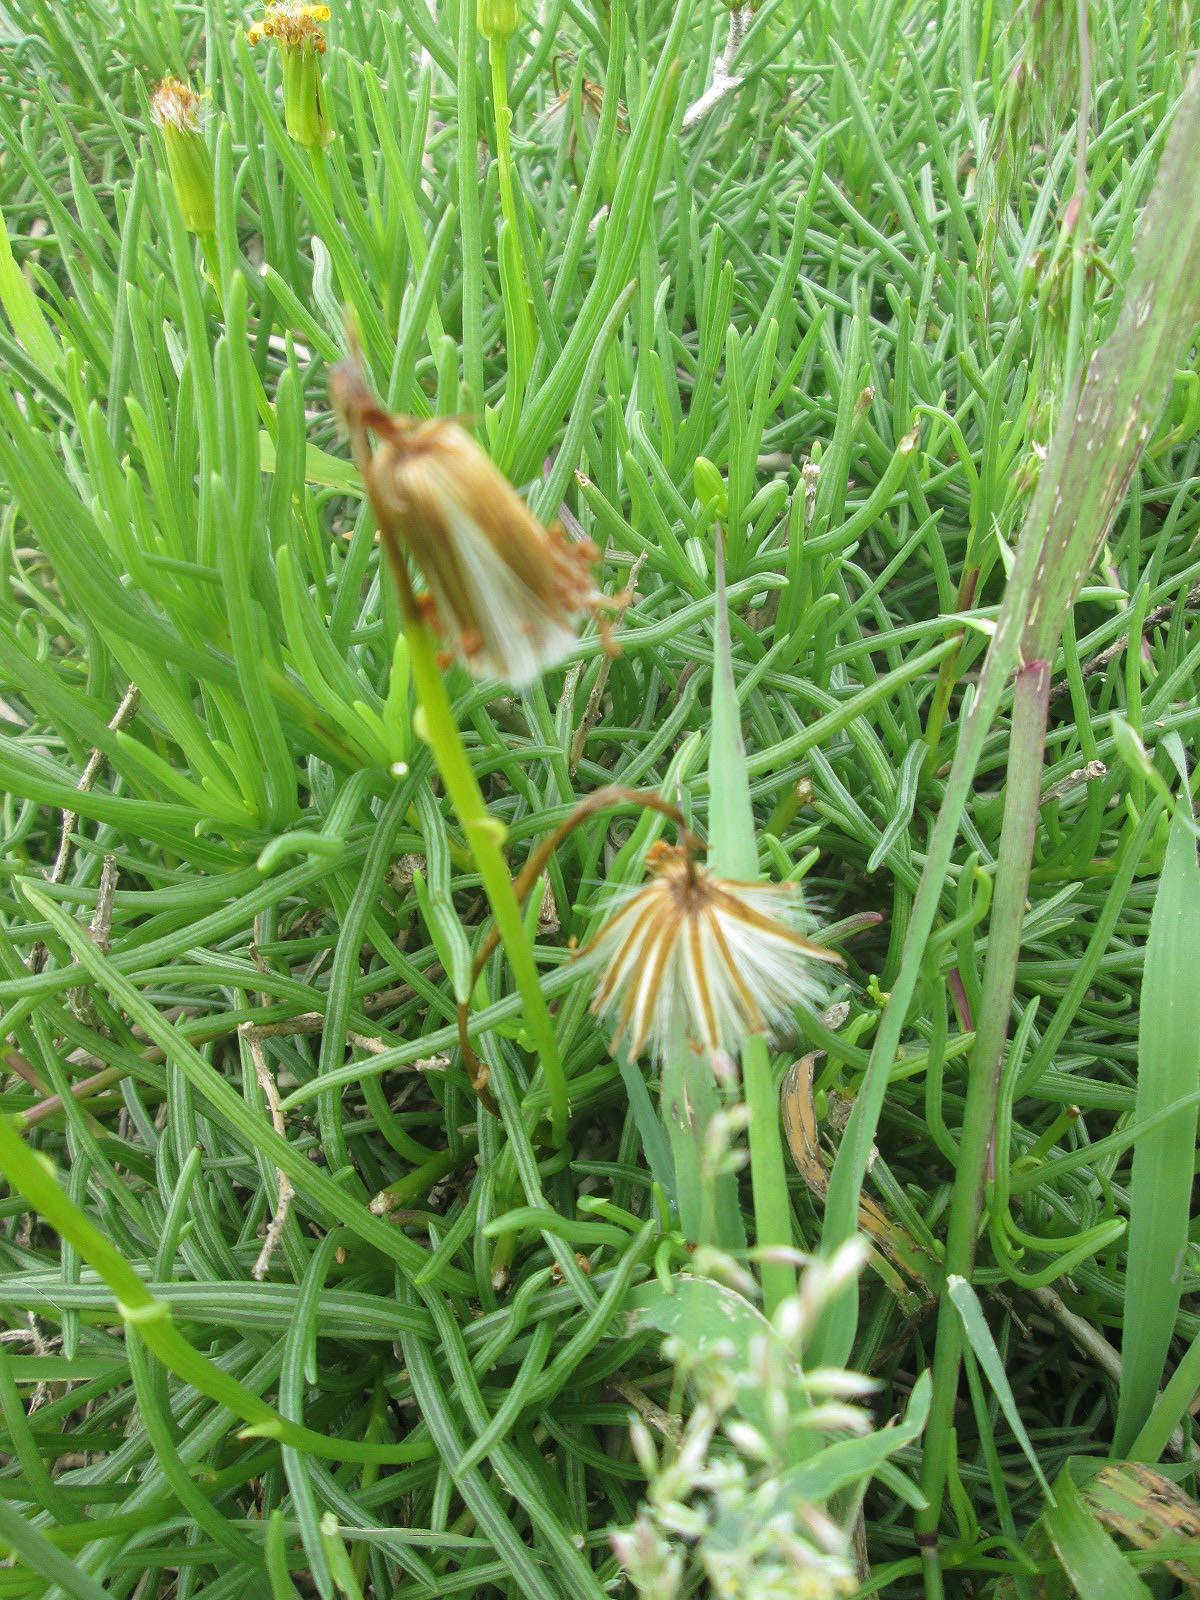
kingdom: Plantae
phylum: Tracheophyta
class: Magnoliopsida
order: Asterales
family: Asteraceae
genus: Senecio
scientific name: Senecio alooides
